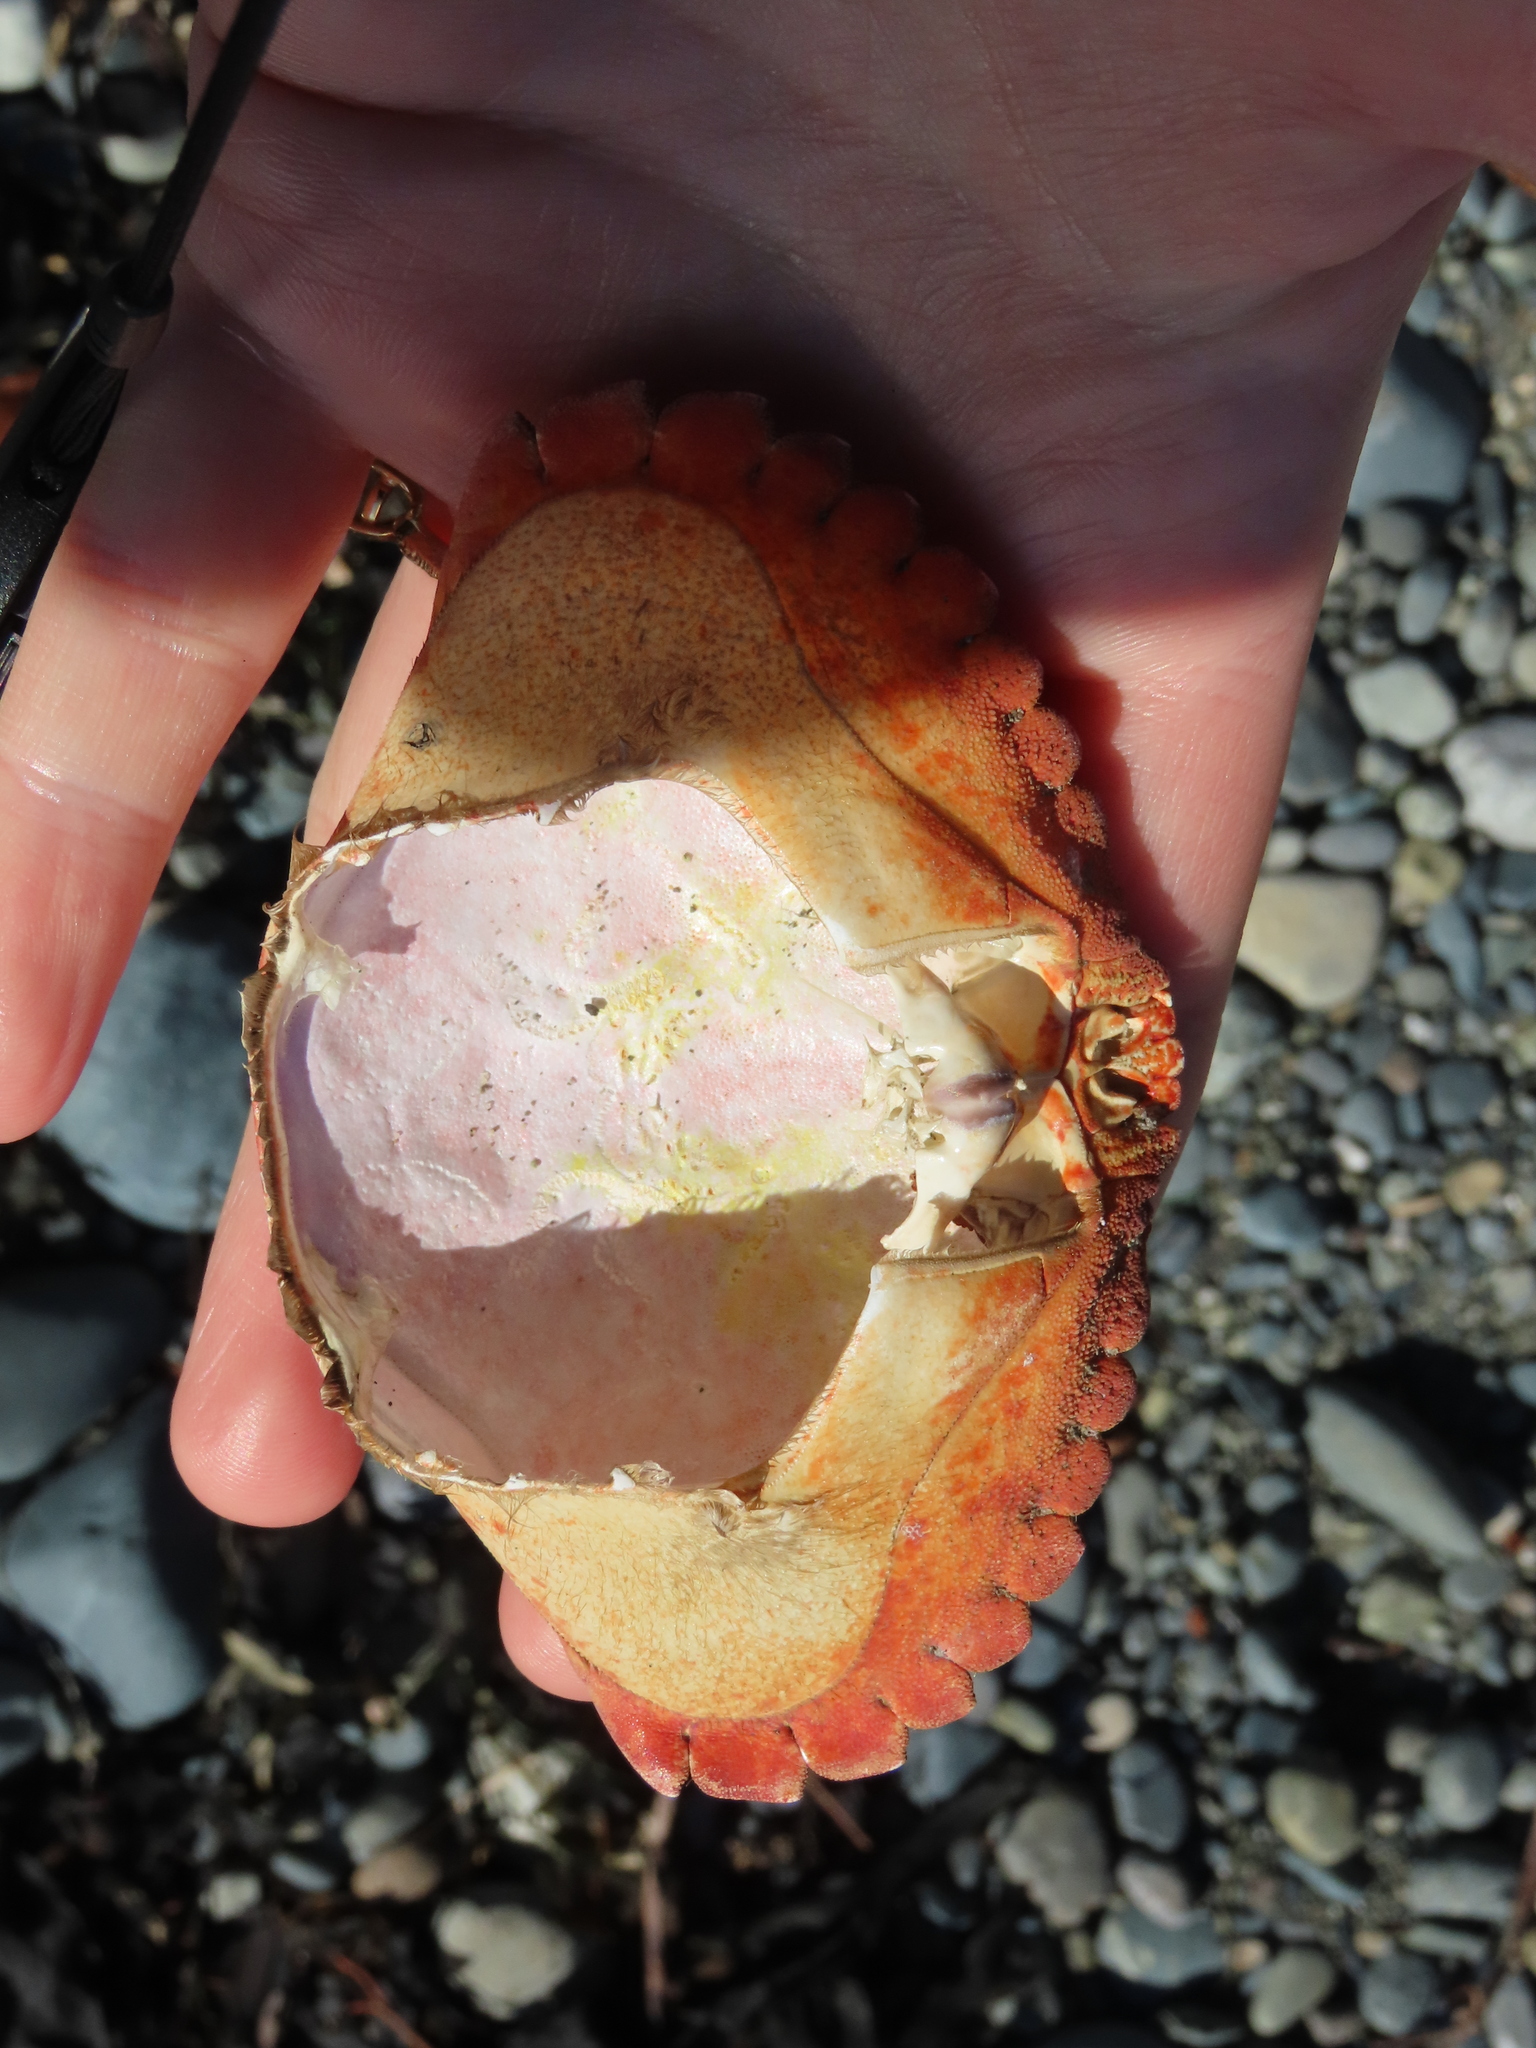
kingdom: Animalia
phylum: Arthropoda
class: Malacostraca
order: Decapoda
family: Cancridae
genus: Cancer
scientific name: Cancer productus
